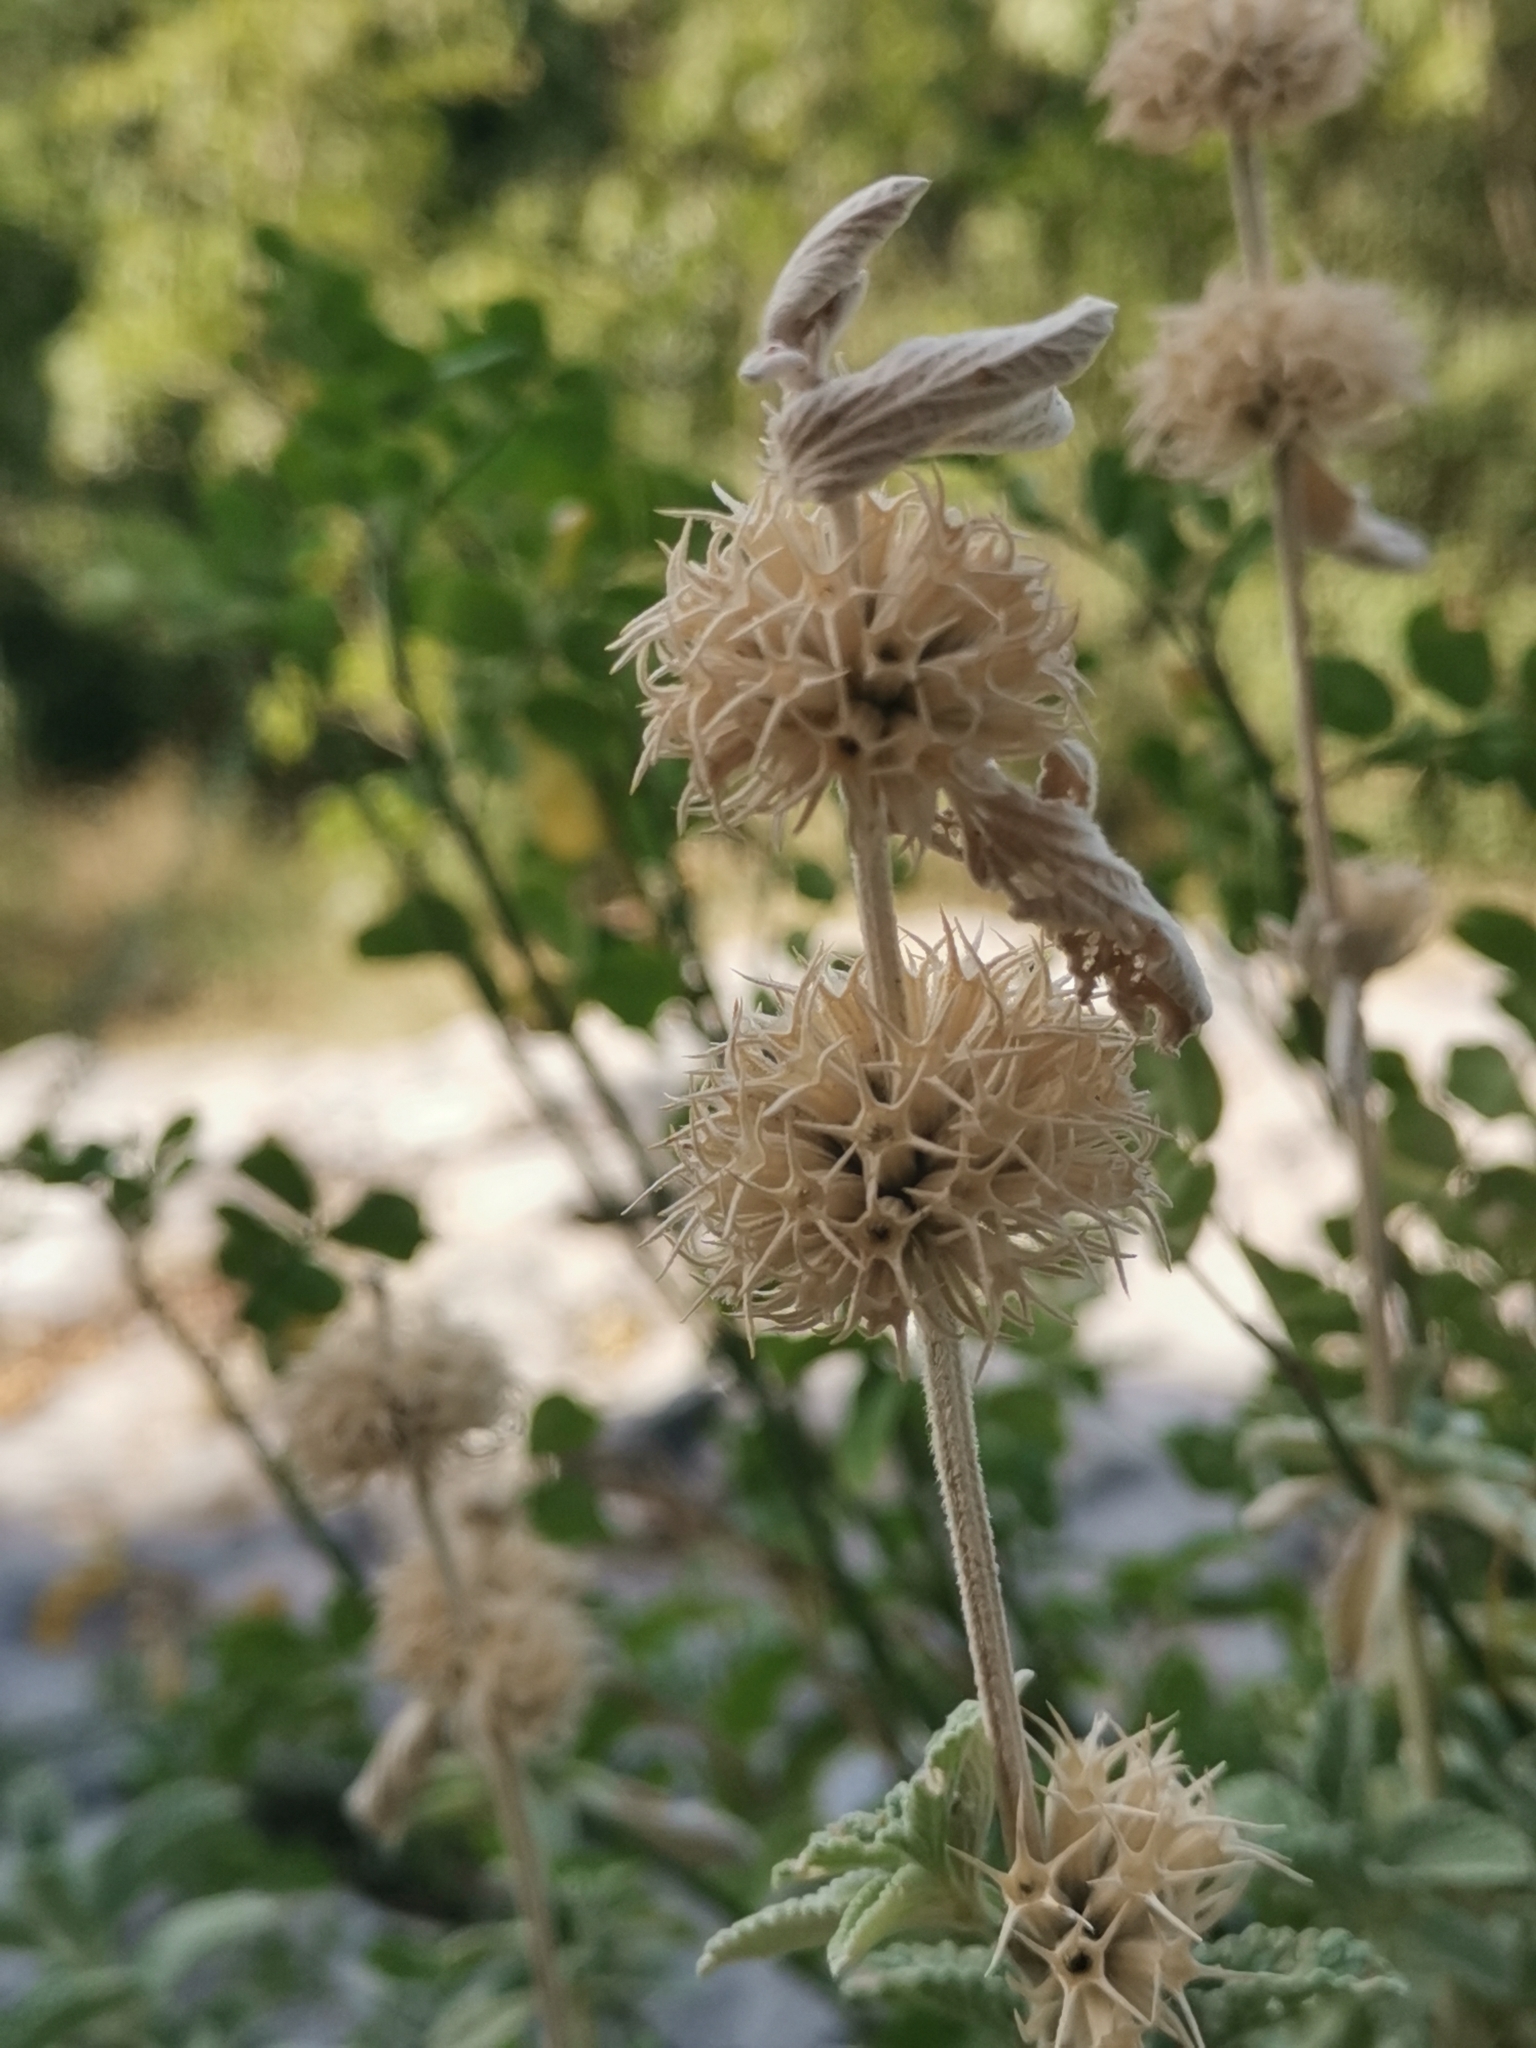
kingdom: Plantae
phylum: Tracheophyta
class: Magnoliopsida
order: Lamiales
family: Lamiaceae
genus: Marrubium
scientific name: Marrubium incanum
